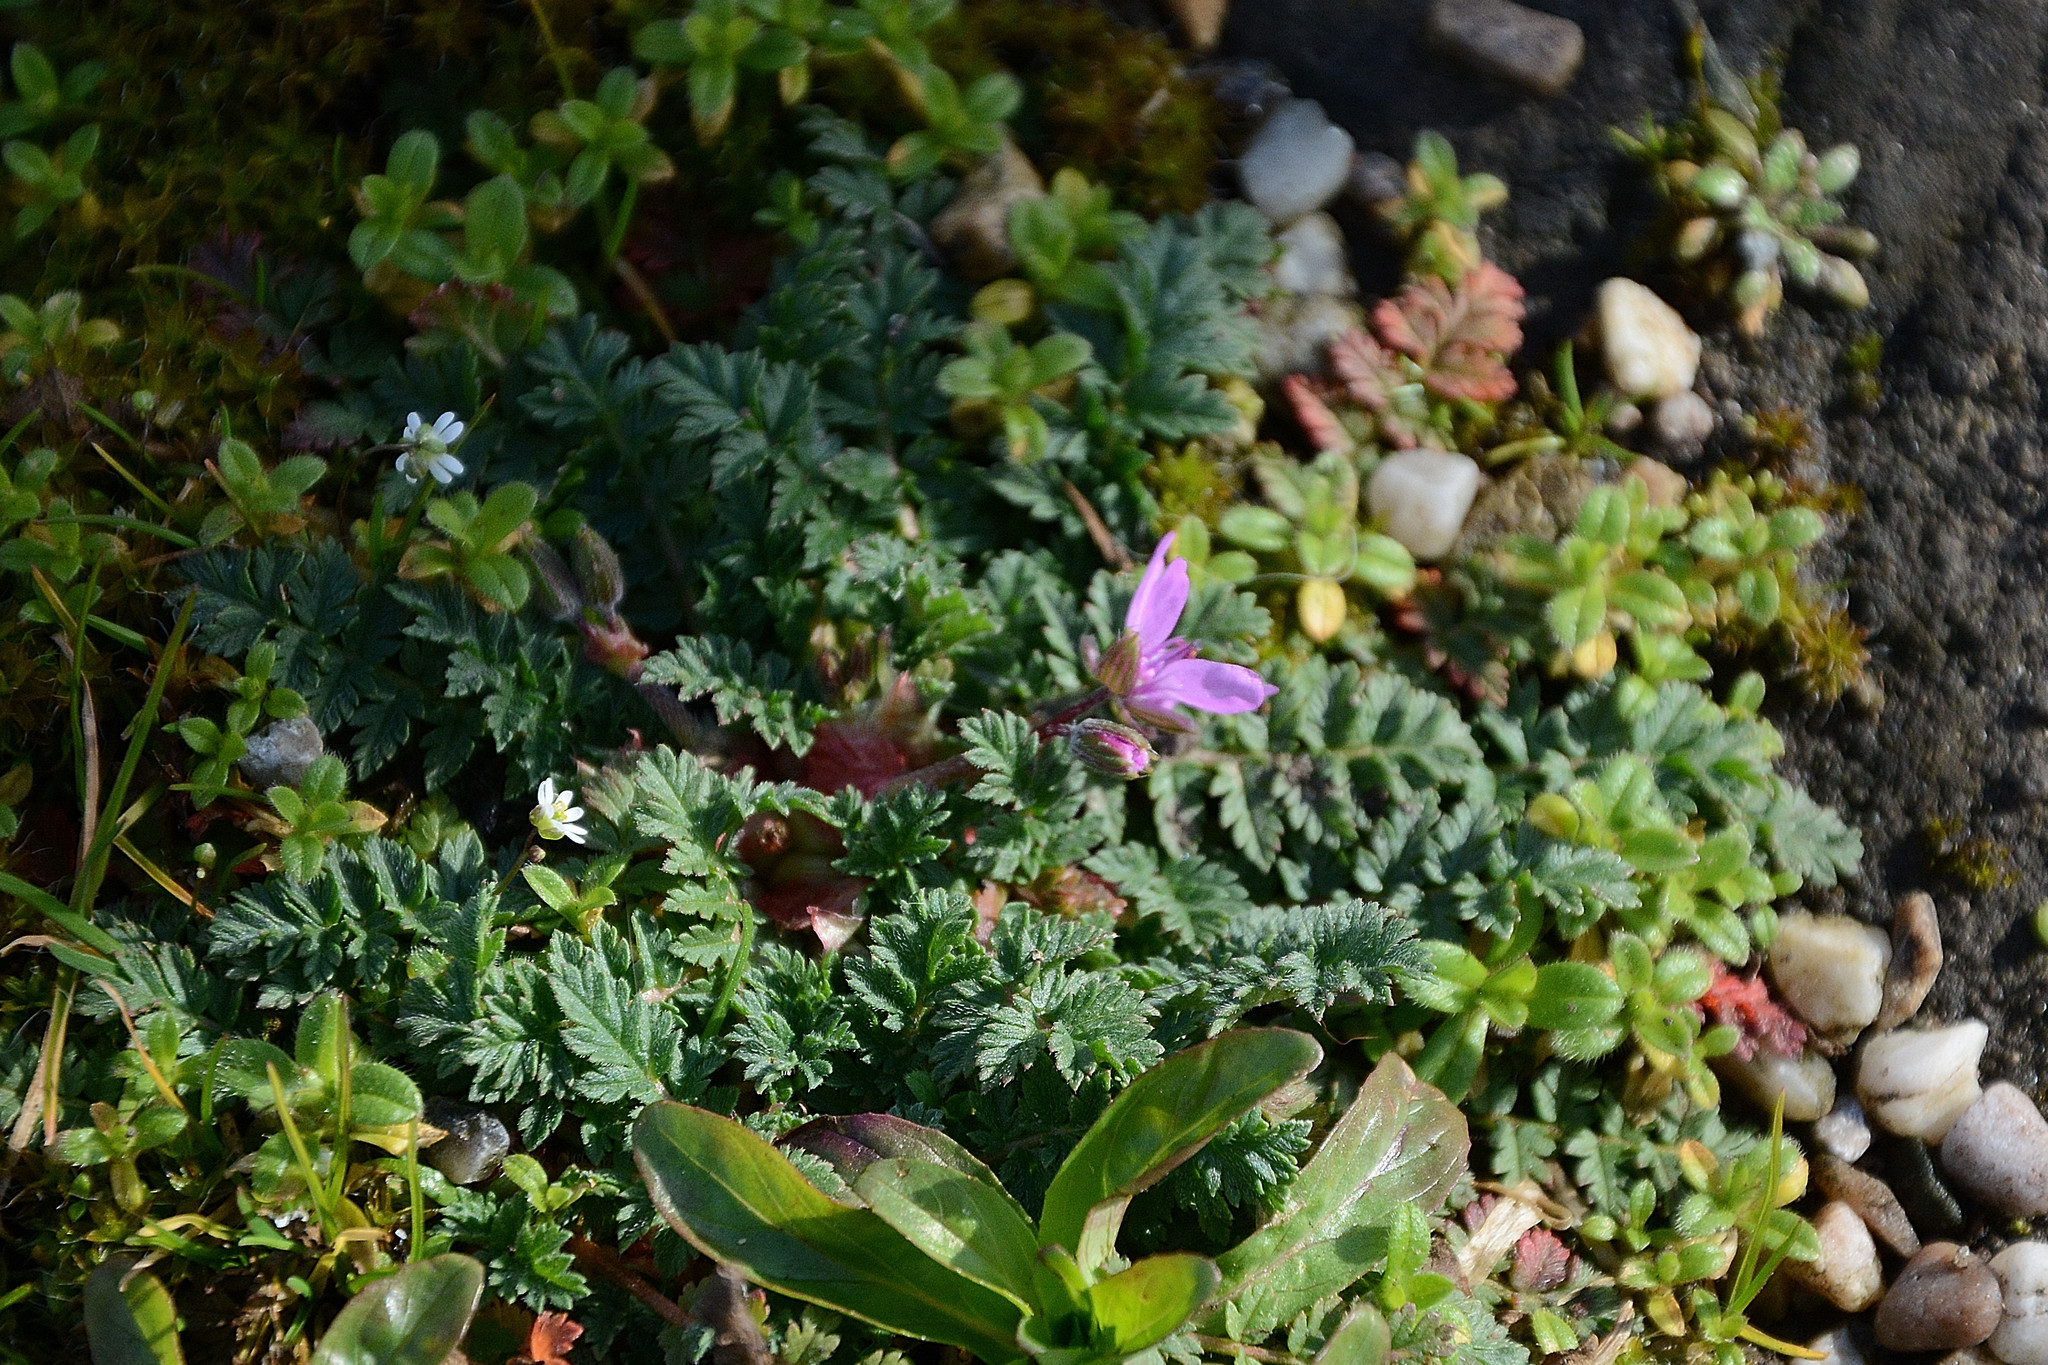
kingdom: Plantae
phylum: Tracheophyta
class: Magnoliopsida
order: Geraniales
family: Geraniaceae
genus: Erodium
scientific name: Erodium cicutarium
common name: Common stork's-bill
